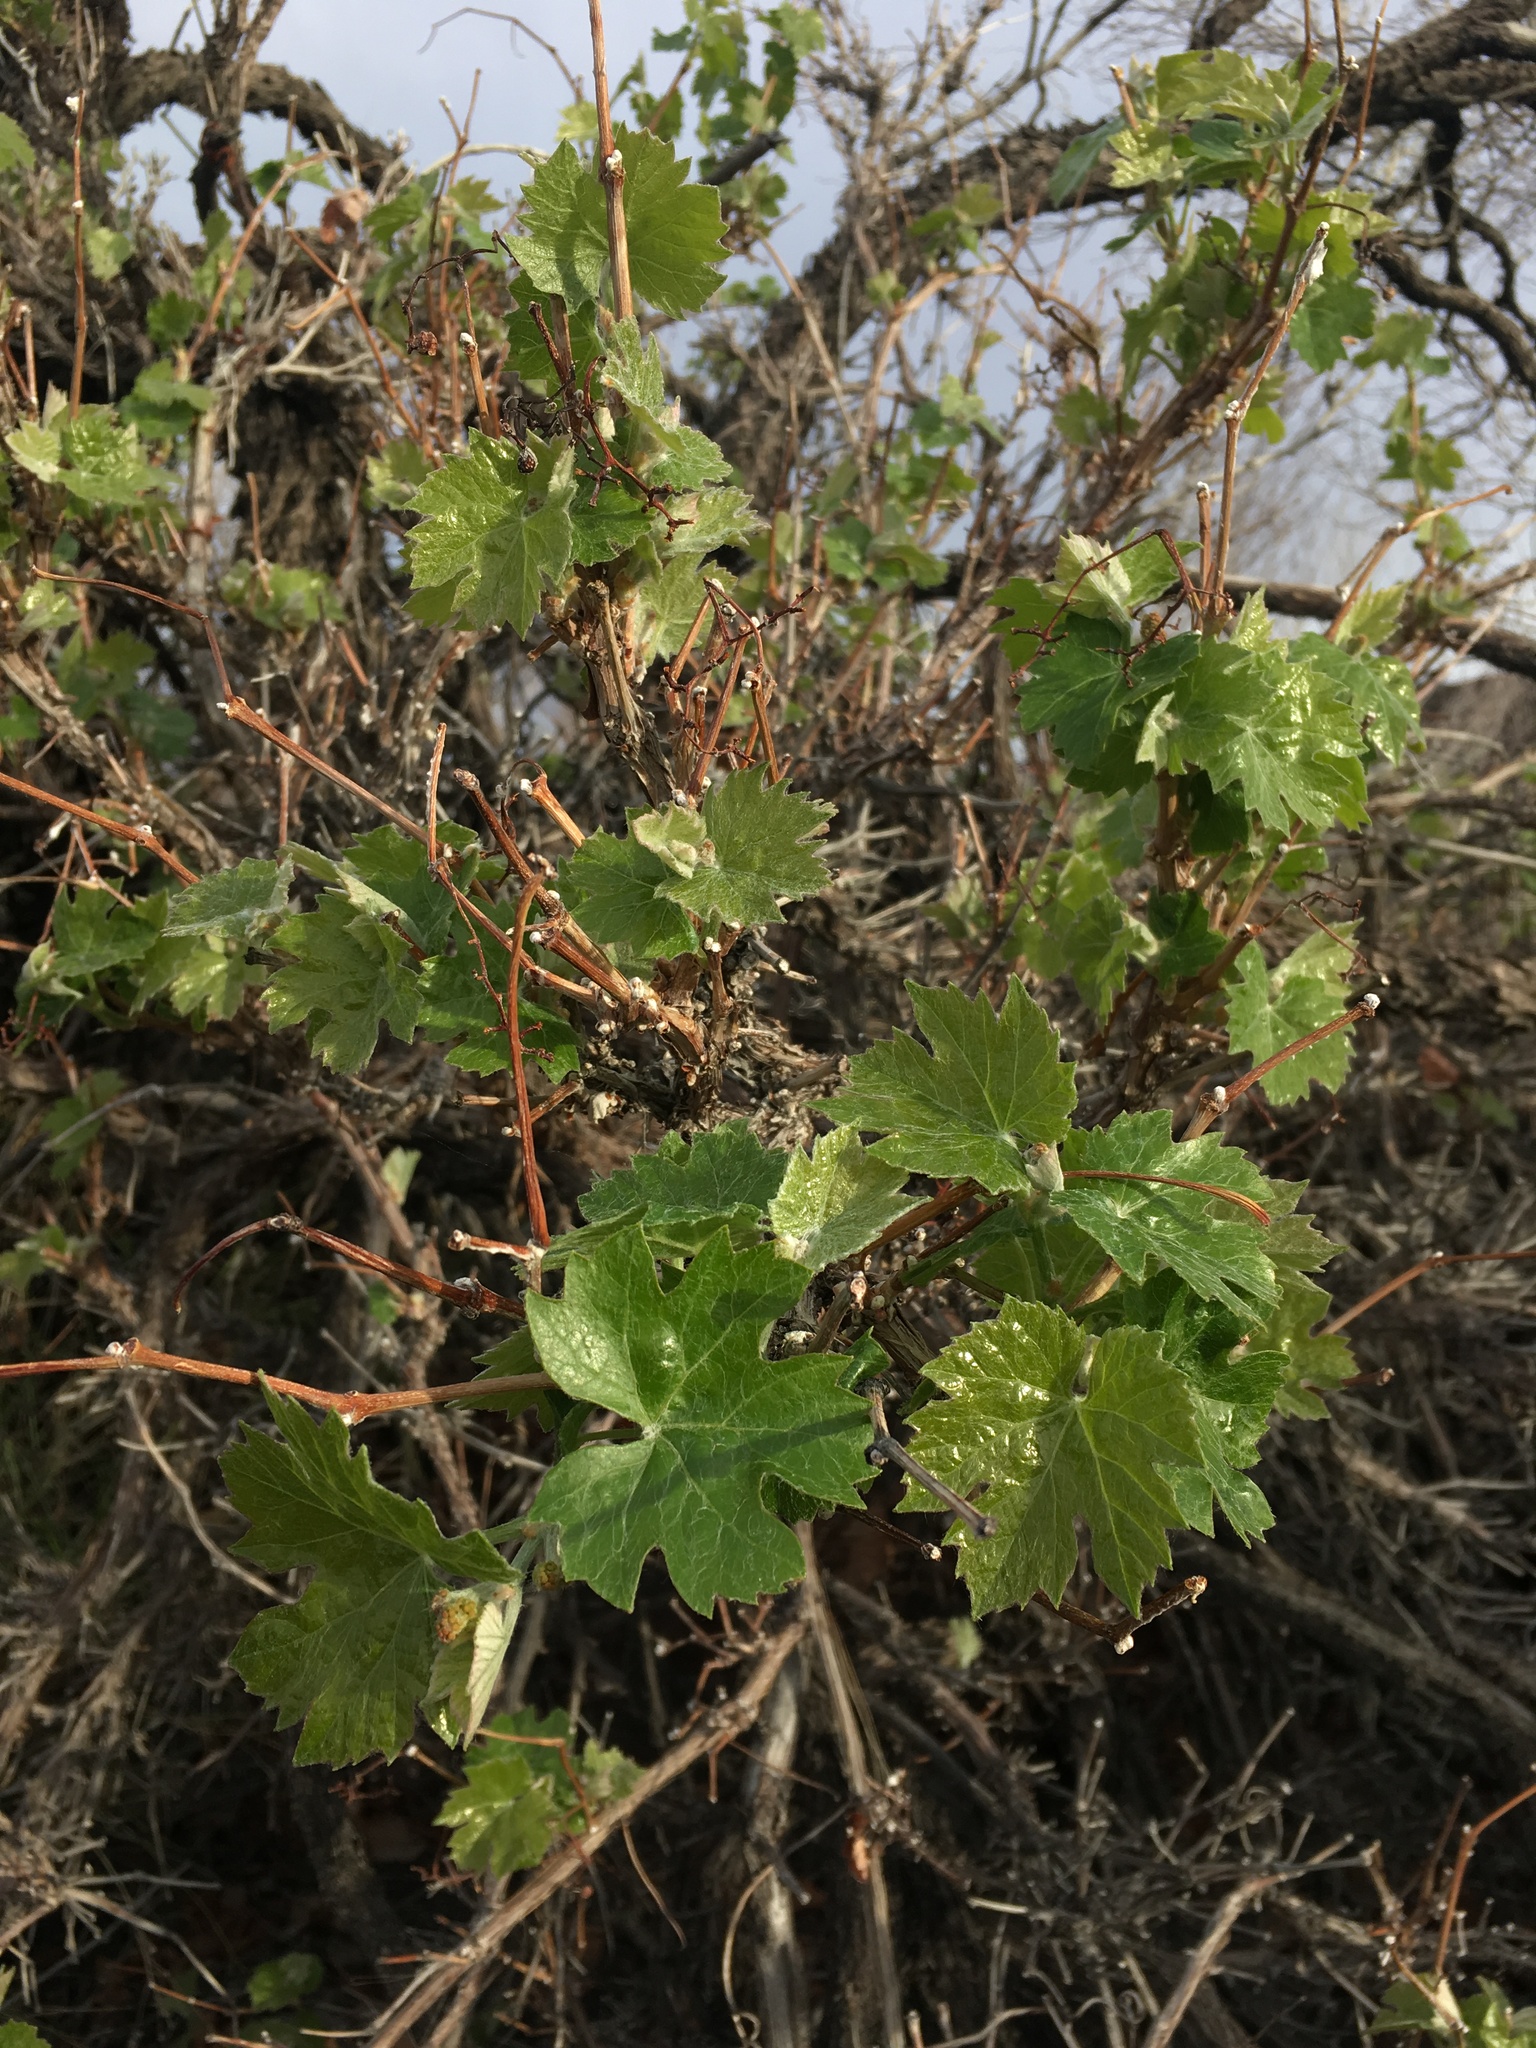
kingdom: Plantae
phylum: Tracheophyta
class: Magnoliopsida
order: Vitales
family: Vitaceae
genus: Vitis
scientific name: Vitis girdiana
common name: Desert wild grape
